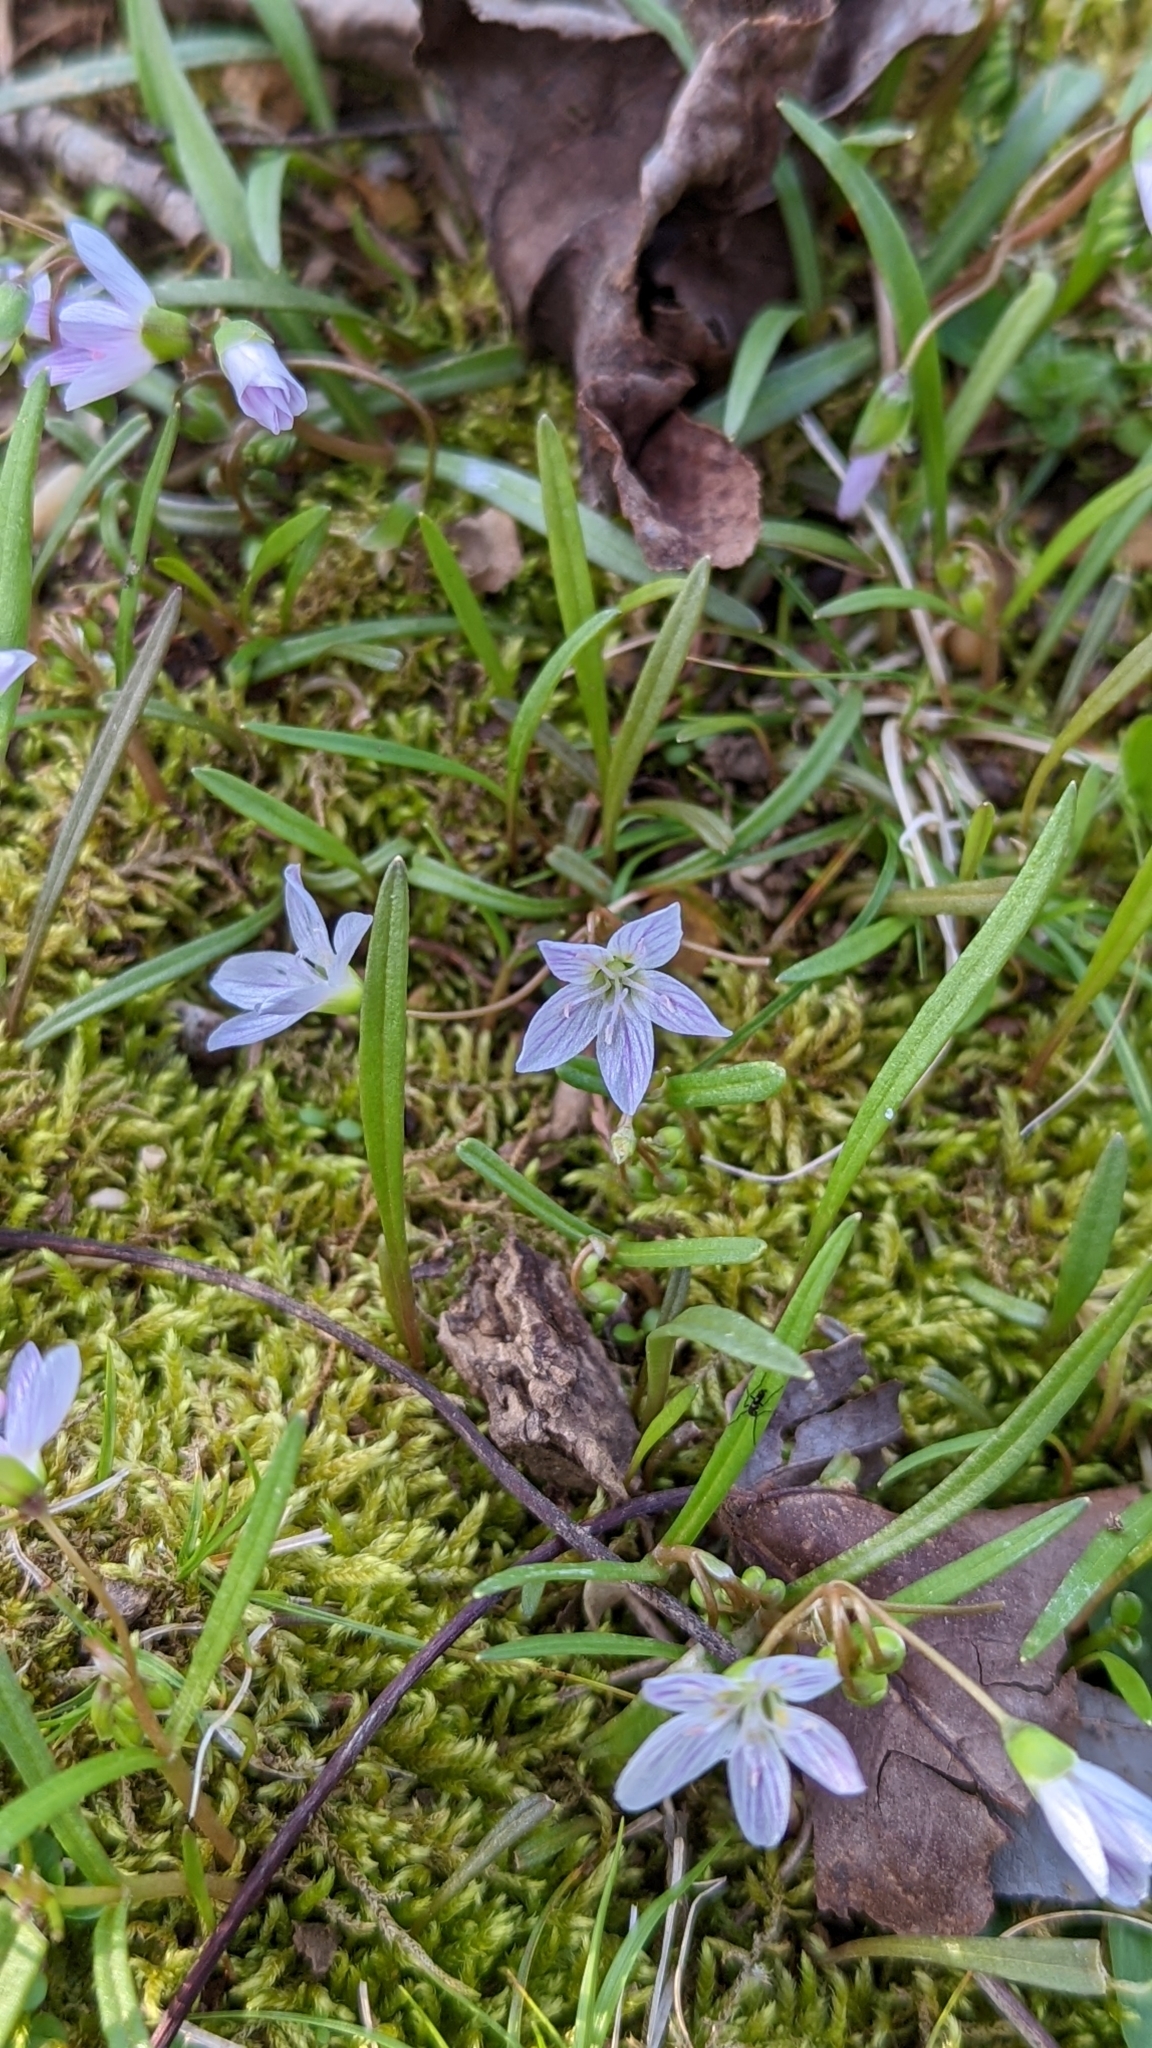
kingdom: Plantae
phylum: Tracheophyta
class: Magnoliopsida
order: Caryophyllales
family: Montiaceae
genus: Claytonia
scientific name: Claytonia virginica
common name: Virginia springbeauty
